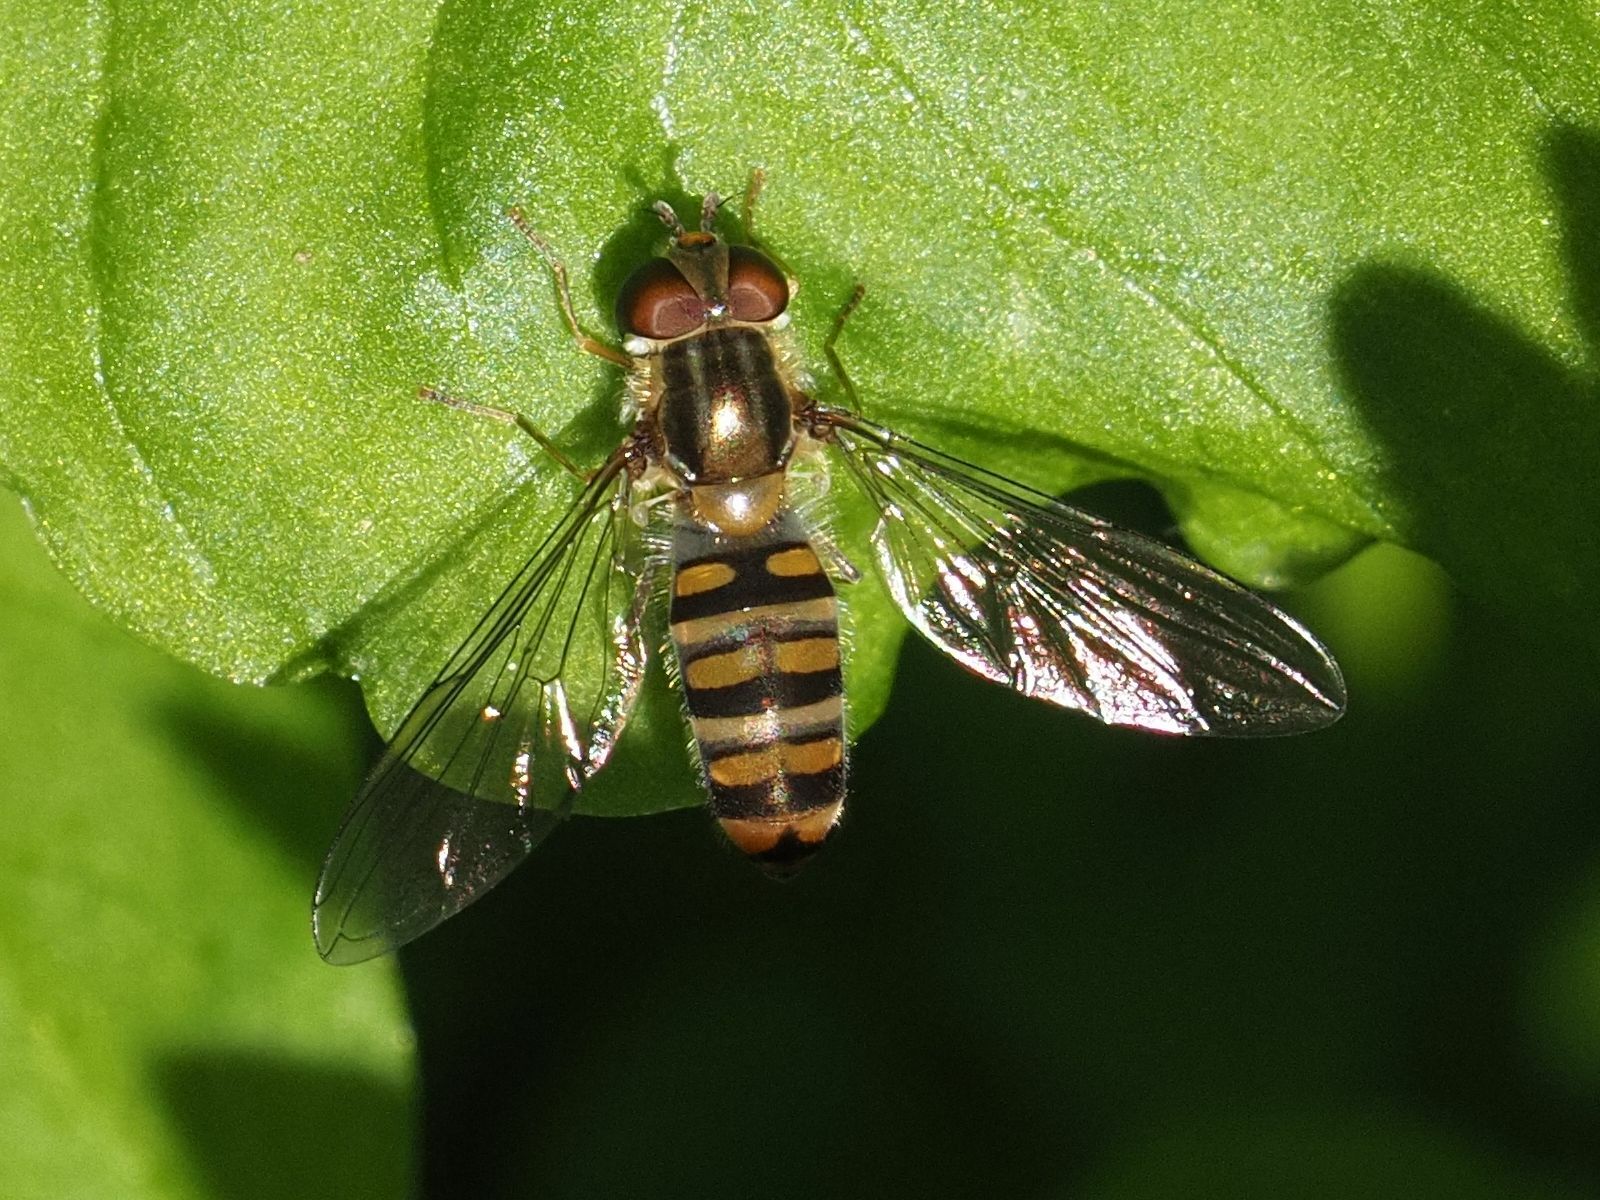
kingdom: Animalia
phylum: Arthropoda
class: Insecta
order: Diptera
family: Syrphidae
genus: Episyrphus
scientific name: Episyrphus balteatus
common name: Marmalade hoverfly
